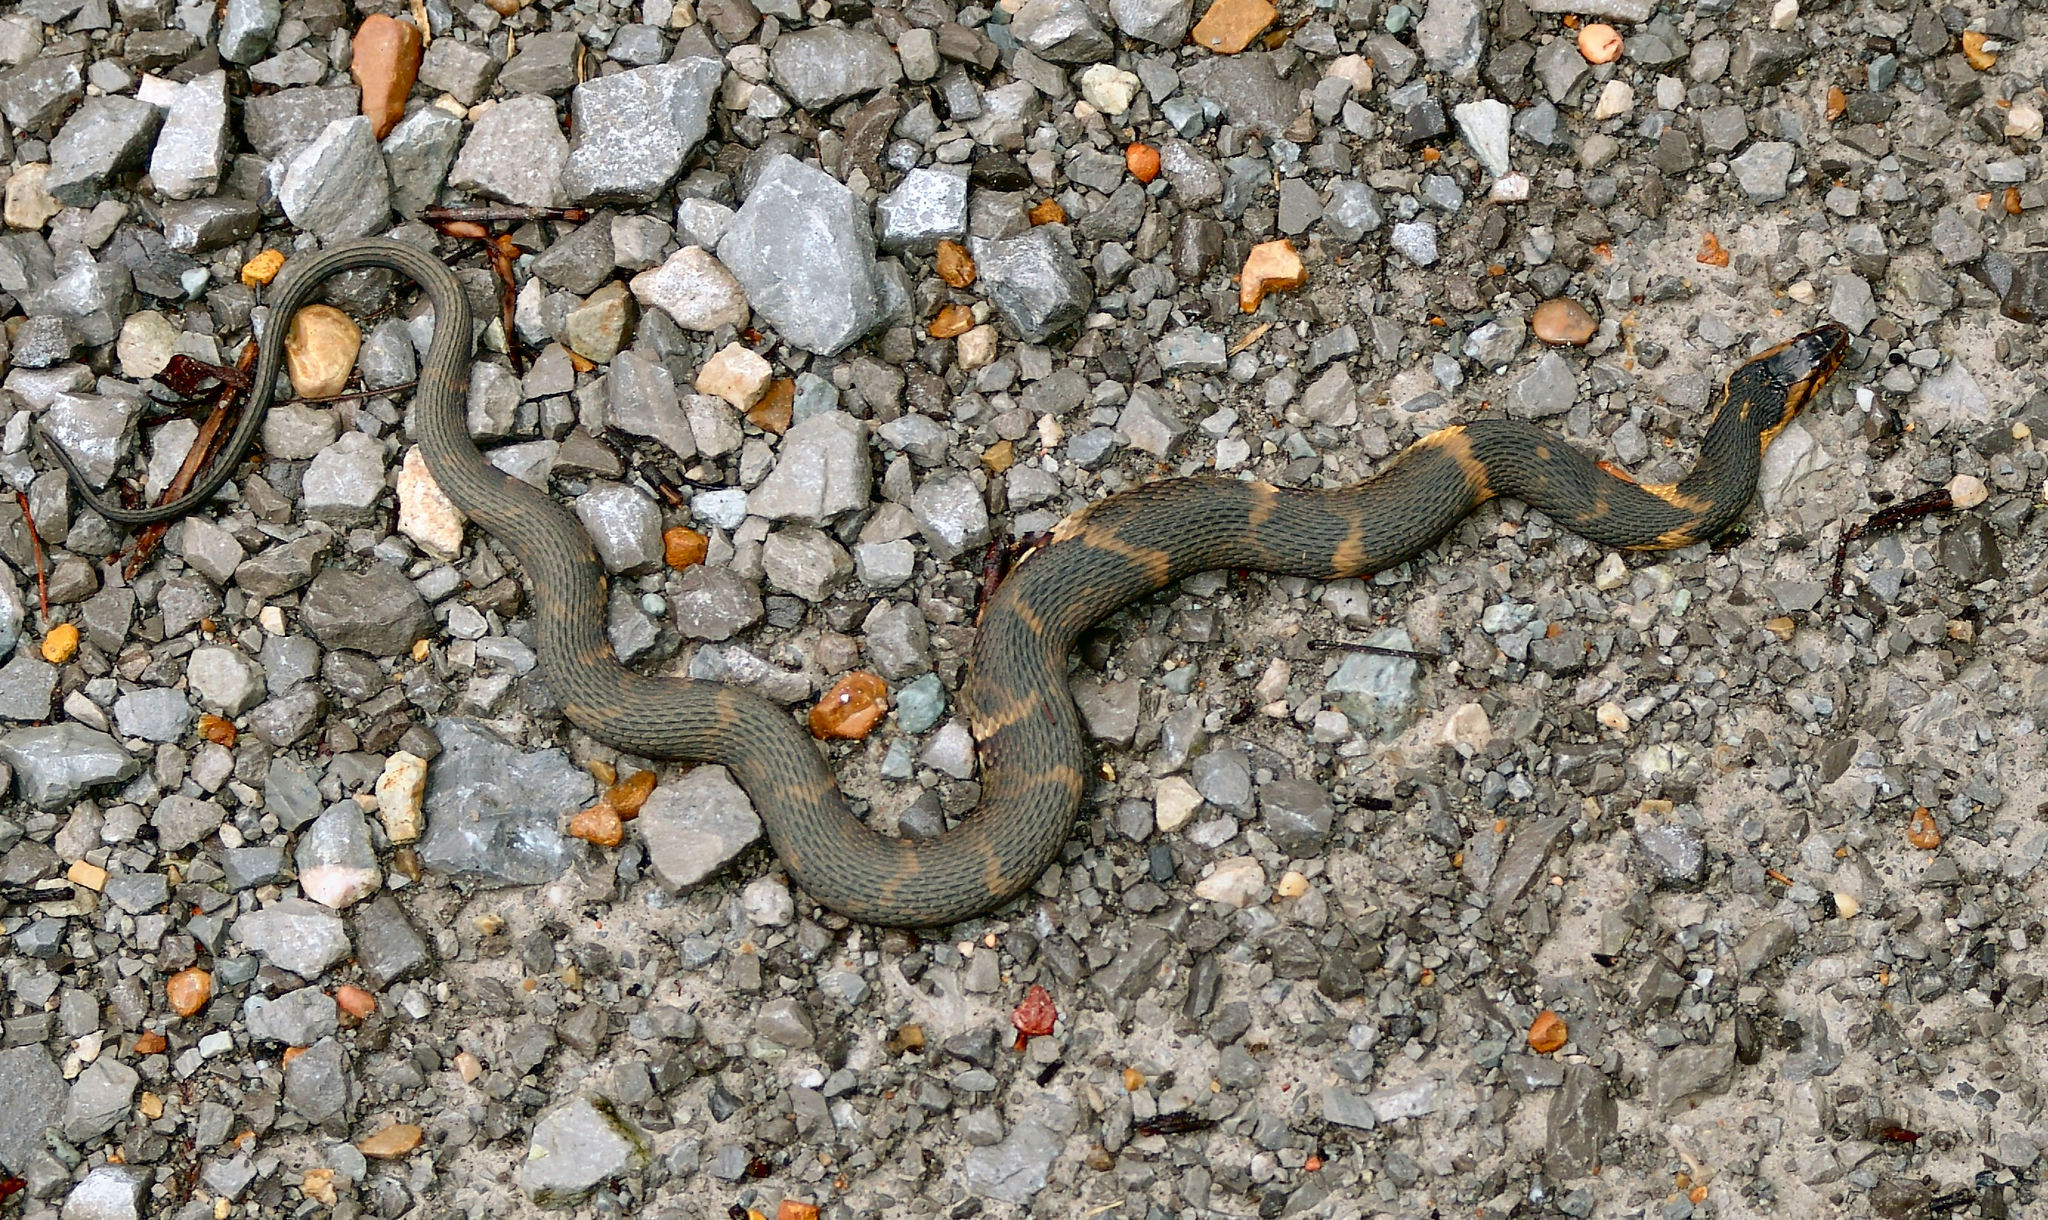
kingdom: Animalia
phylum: Chordata
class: Squamata
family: Colubridae
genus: Nerodia
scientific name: Nerodia fasciata
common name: Southern water snake
